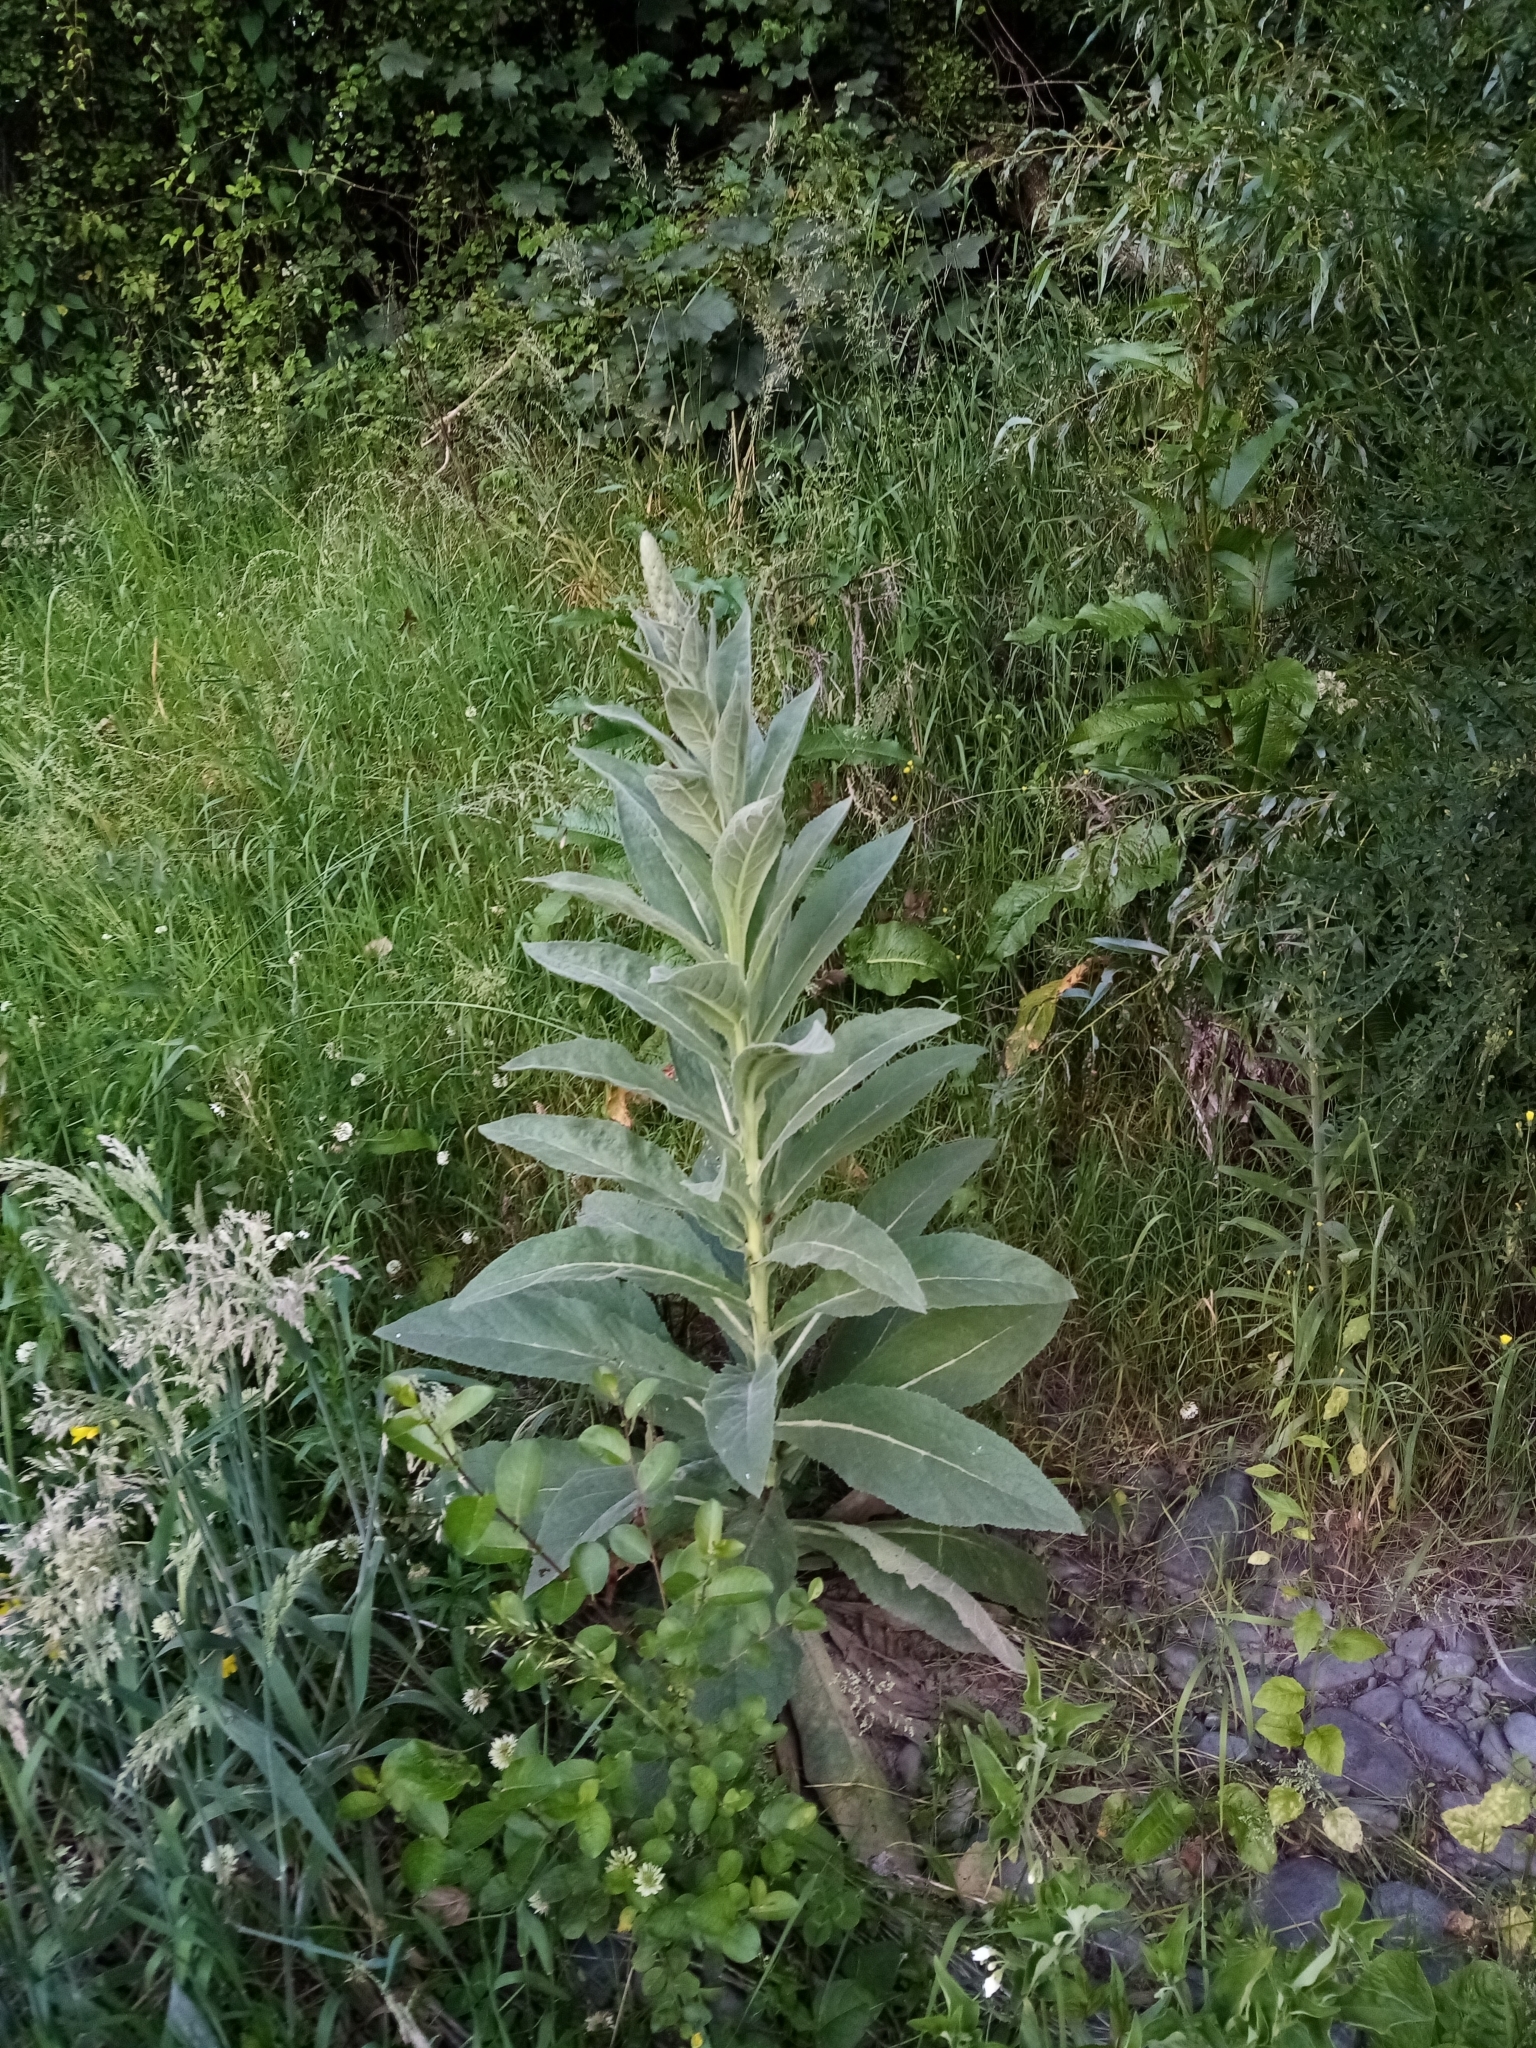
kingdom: Plantae
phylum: Tracheophyta
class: Magnoliopsida
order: Lamiales
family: Scrophulariaceae
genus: Verbascum
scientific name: Verbascum thapsus
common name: Common mullein
